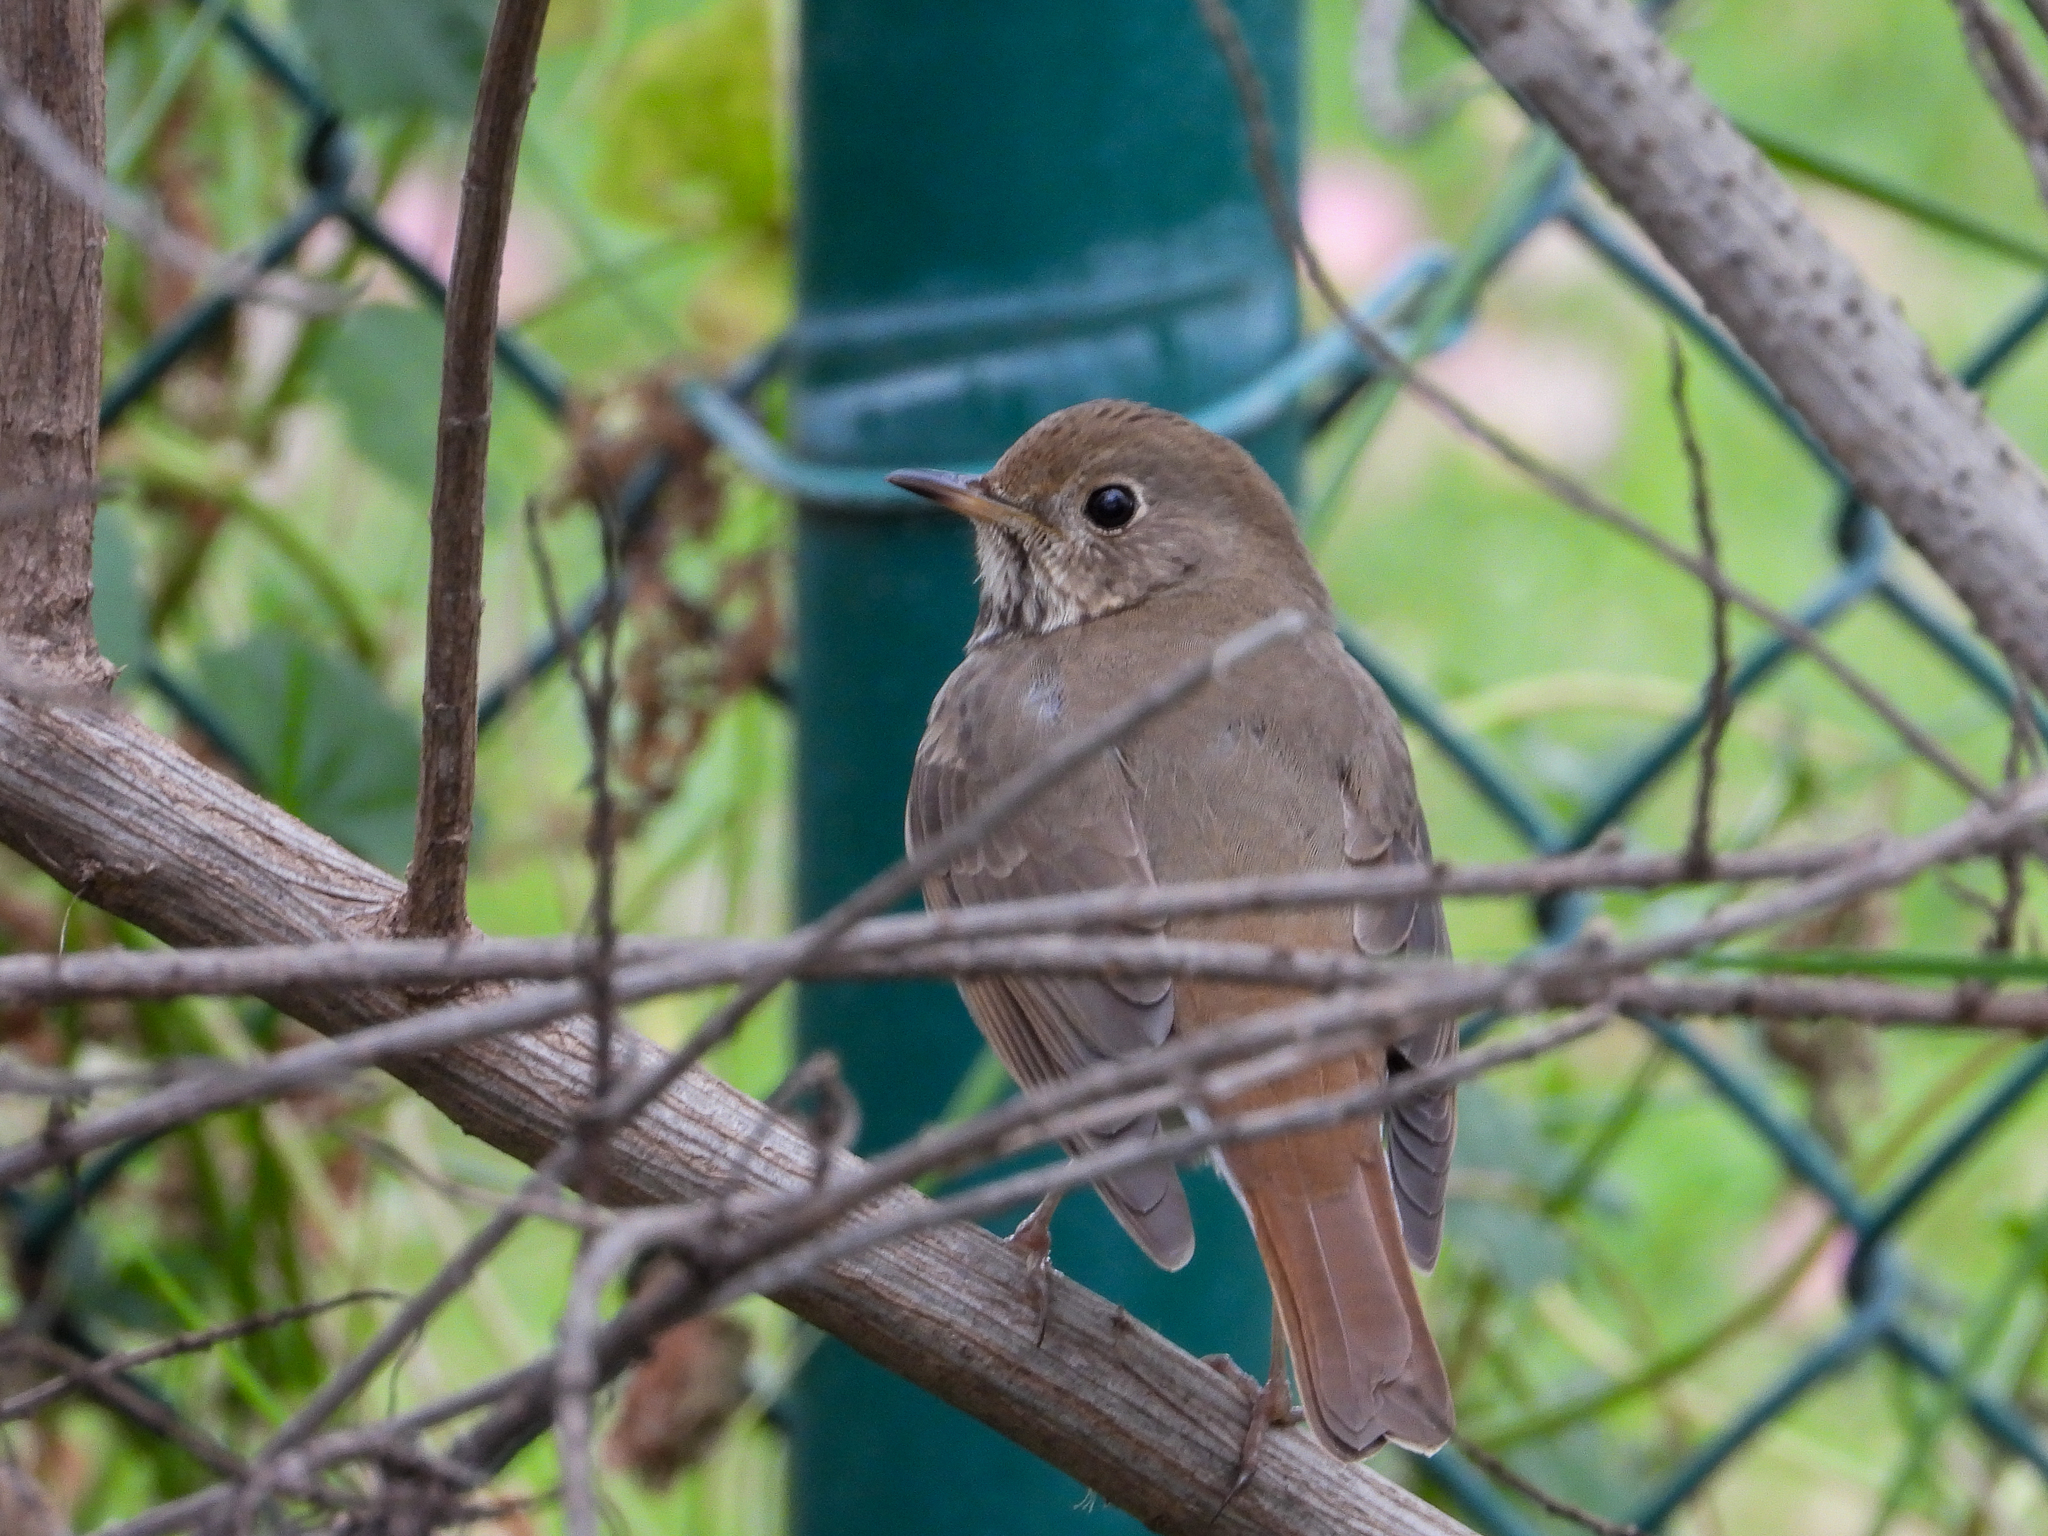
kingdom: Animalia
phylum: Chordata
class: Aves
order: Passeriformes
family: Turdidae
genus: Catharus
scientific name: Catharus guttatus
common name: Hermit thrush
